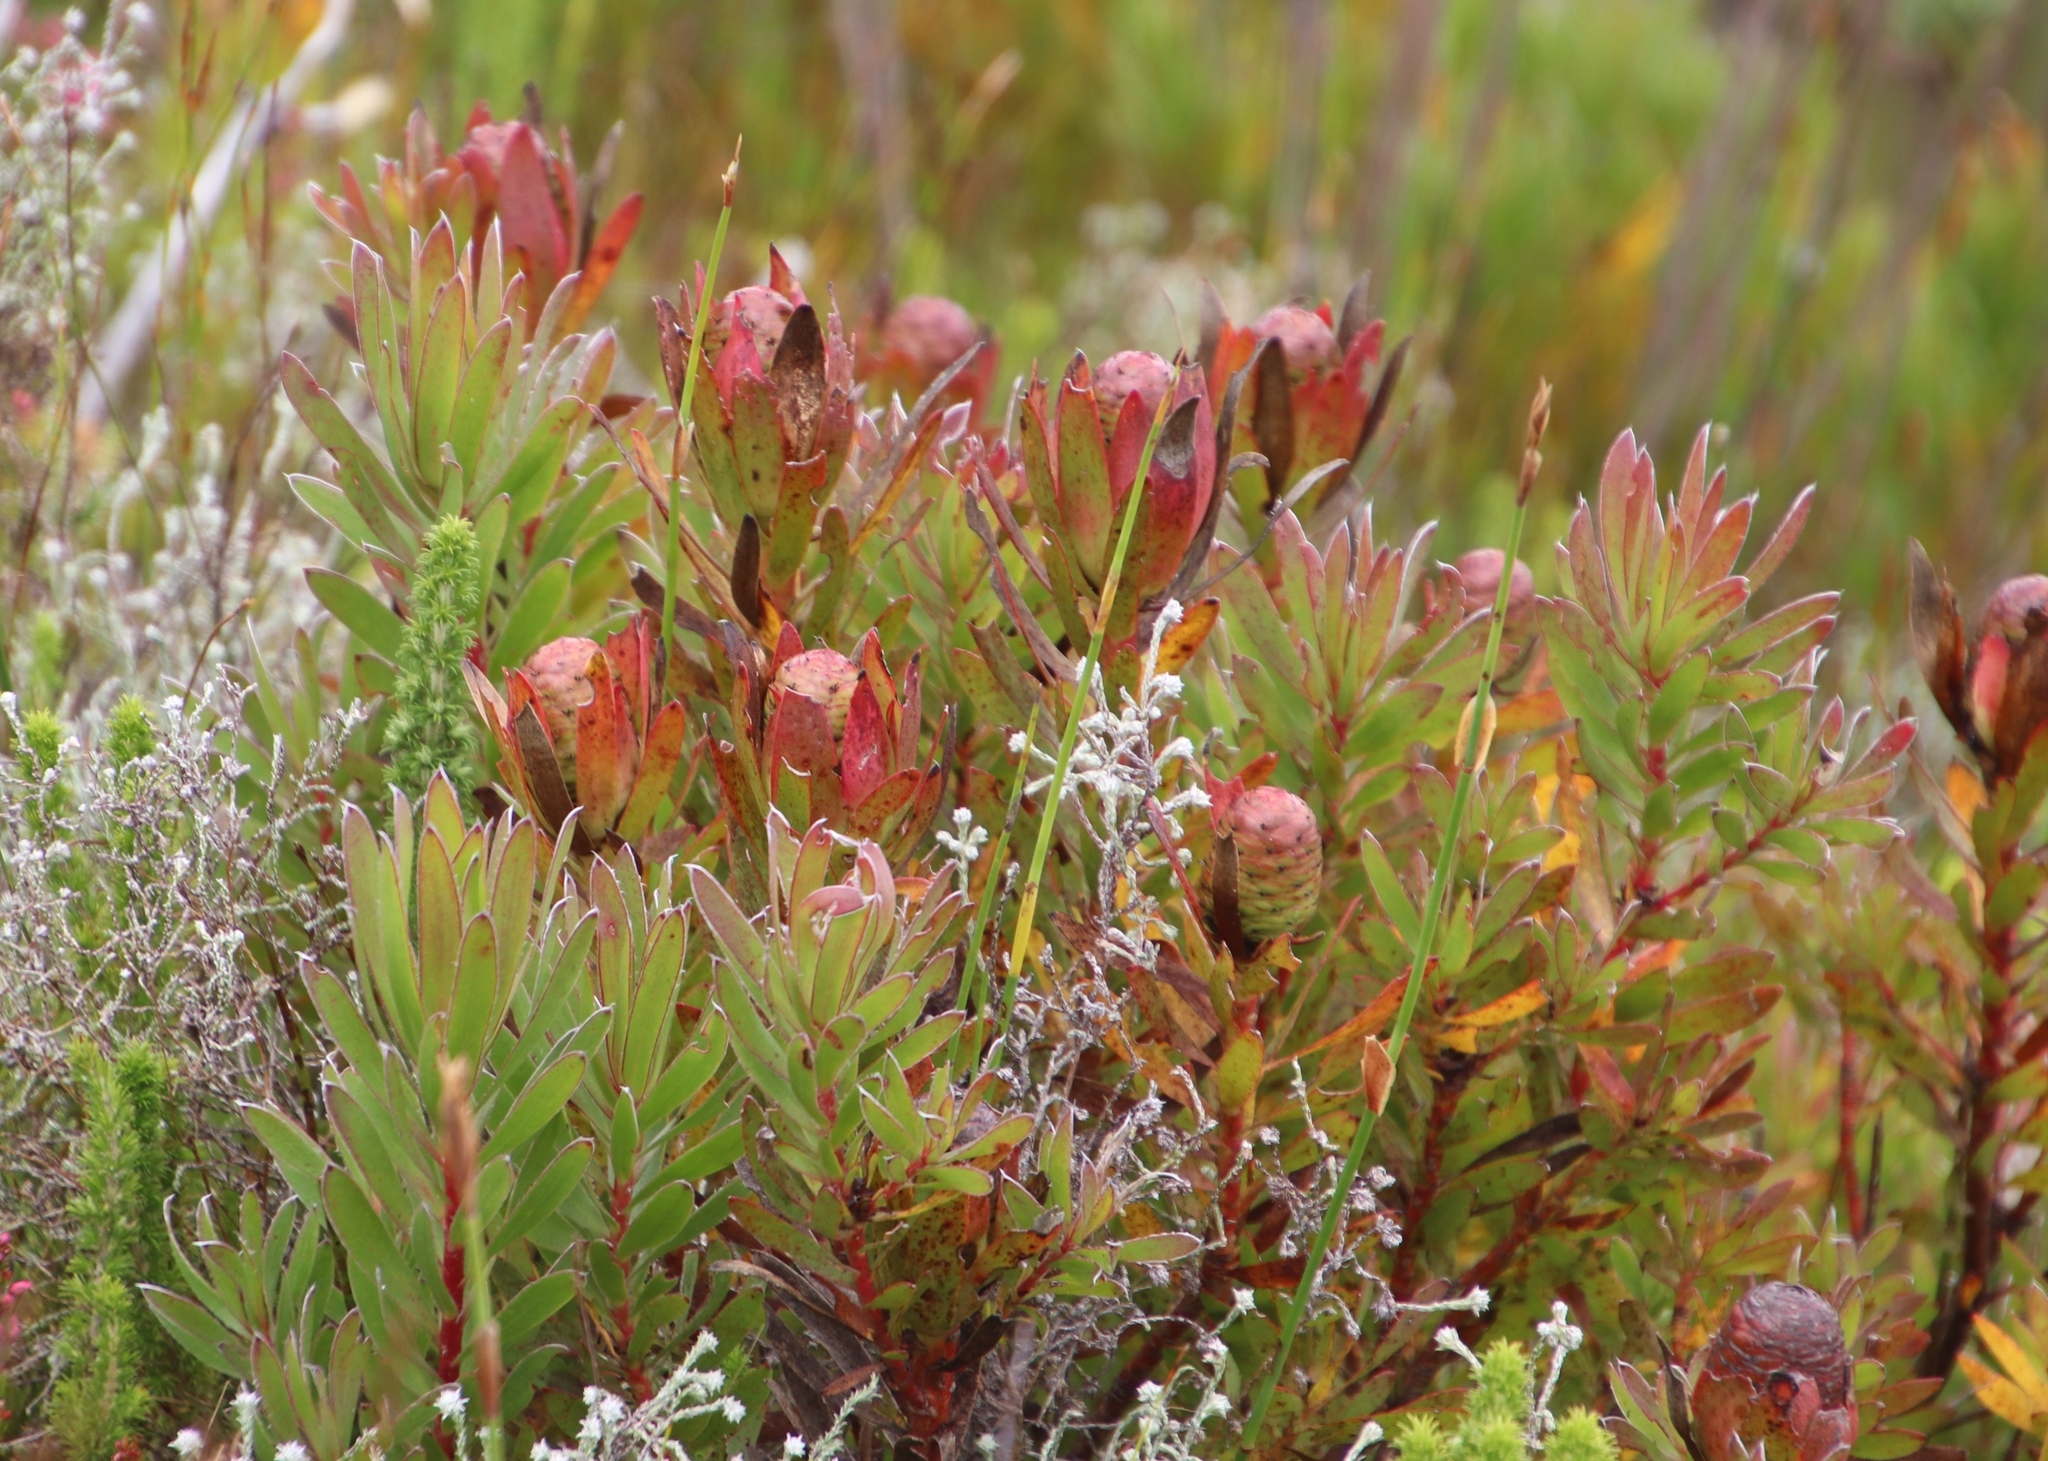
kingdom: Plantae
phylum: Tracheophyta
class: Magnoliopsida
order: Proteales
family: Proteaceae
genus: Leucadendron
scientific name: Leucadendron spissifolium
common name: Spear-leaf conebush
